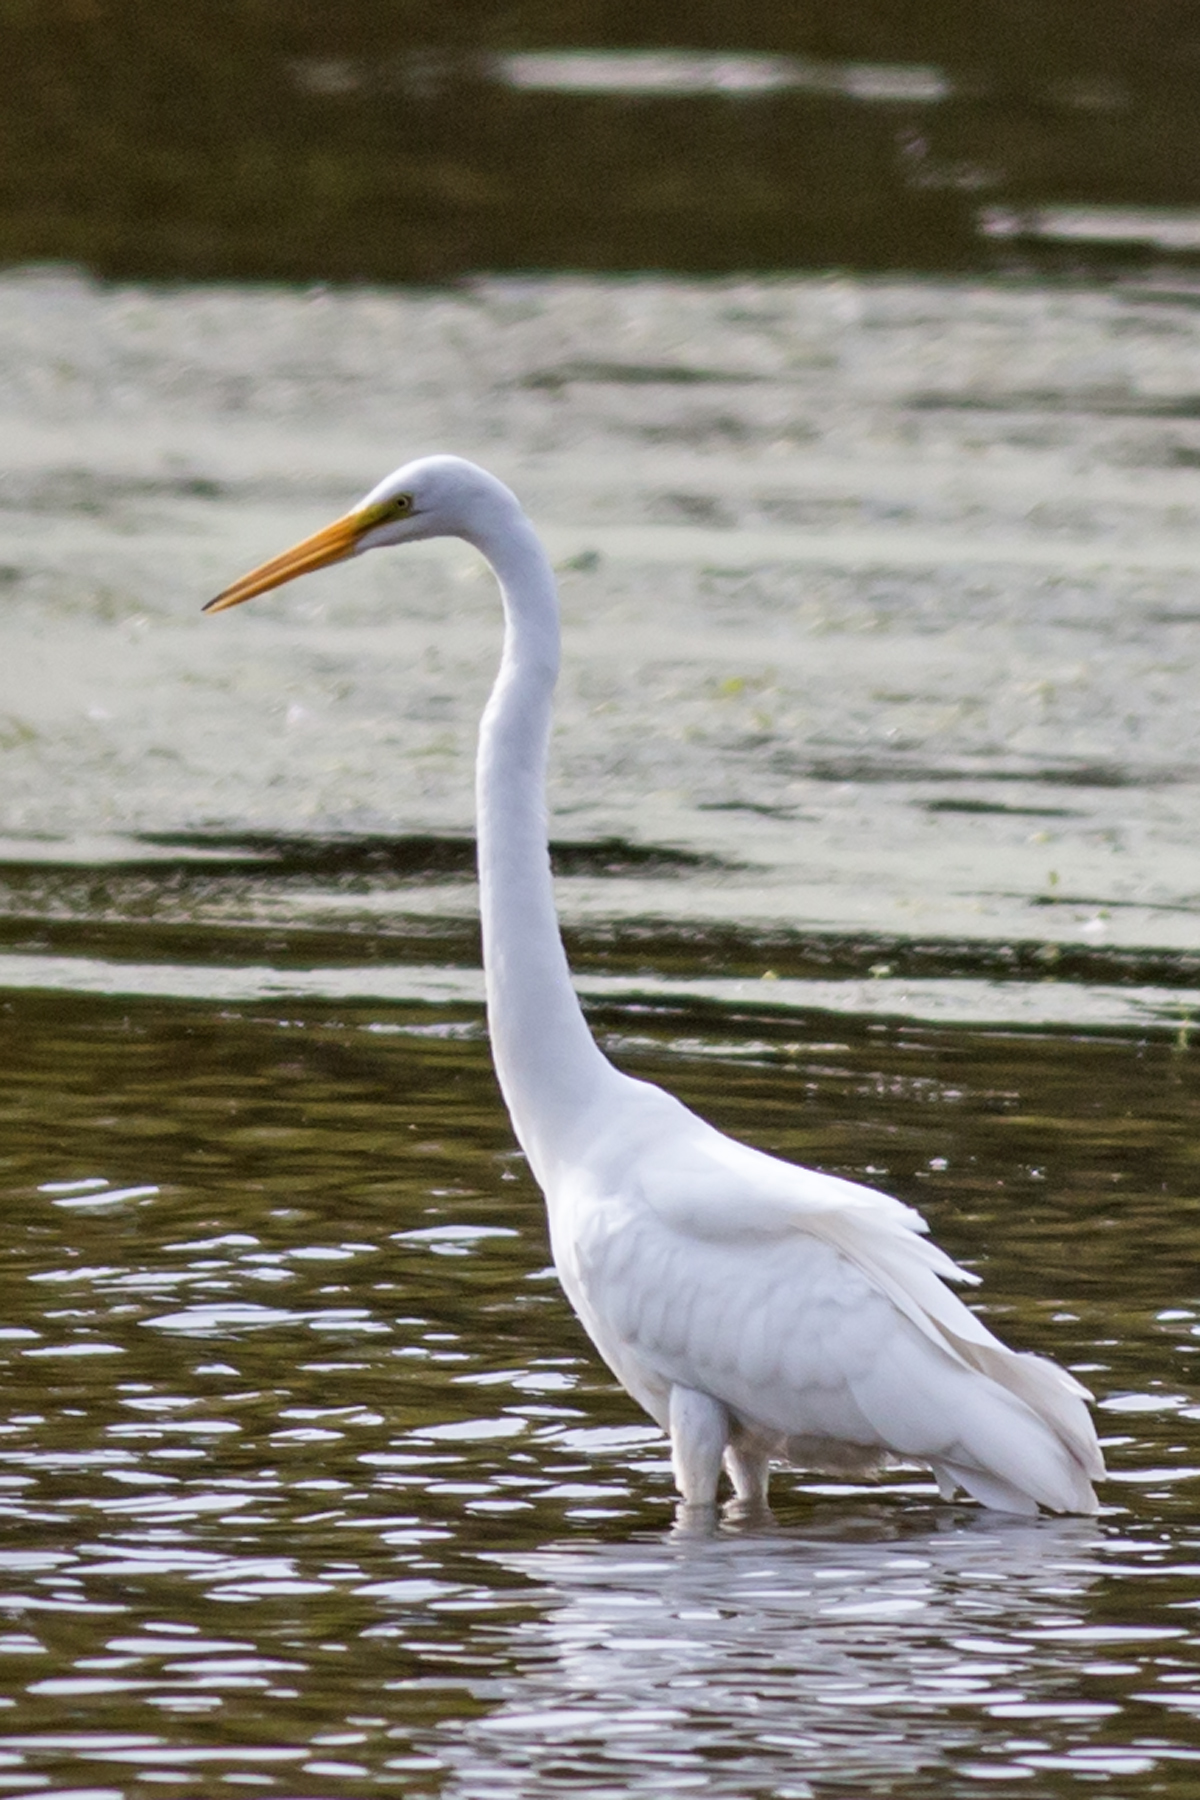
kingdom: Animalia
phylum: Chordata
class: Aves
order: Pelecaniformes
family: Ardeidae
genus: Ardea
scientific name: Ardea alba
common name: Great egret
